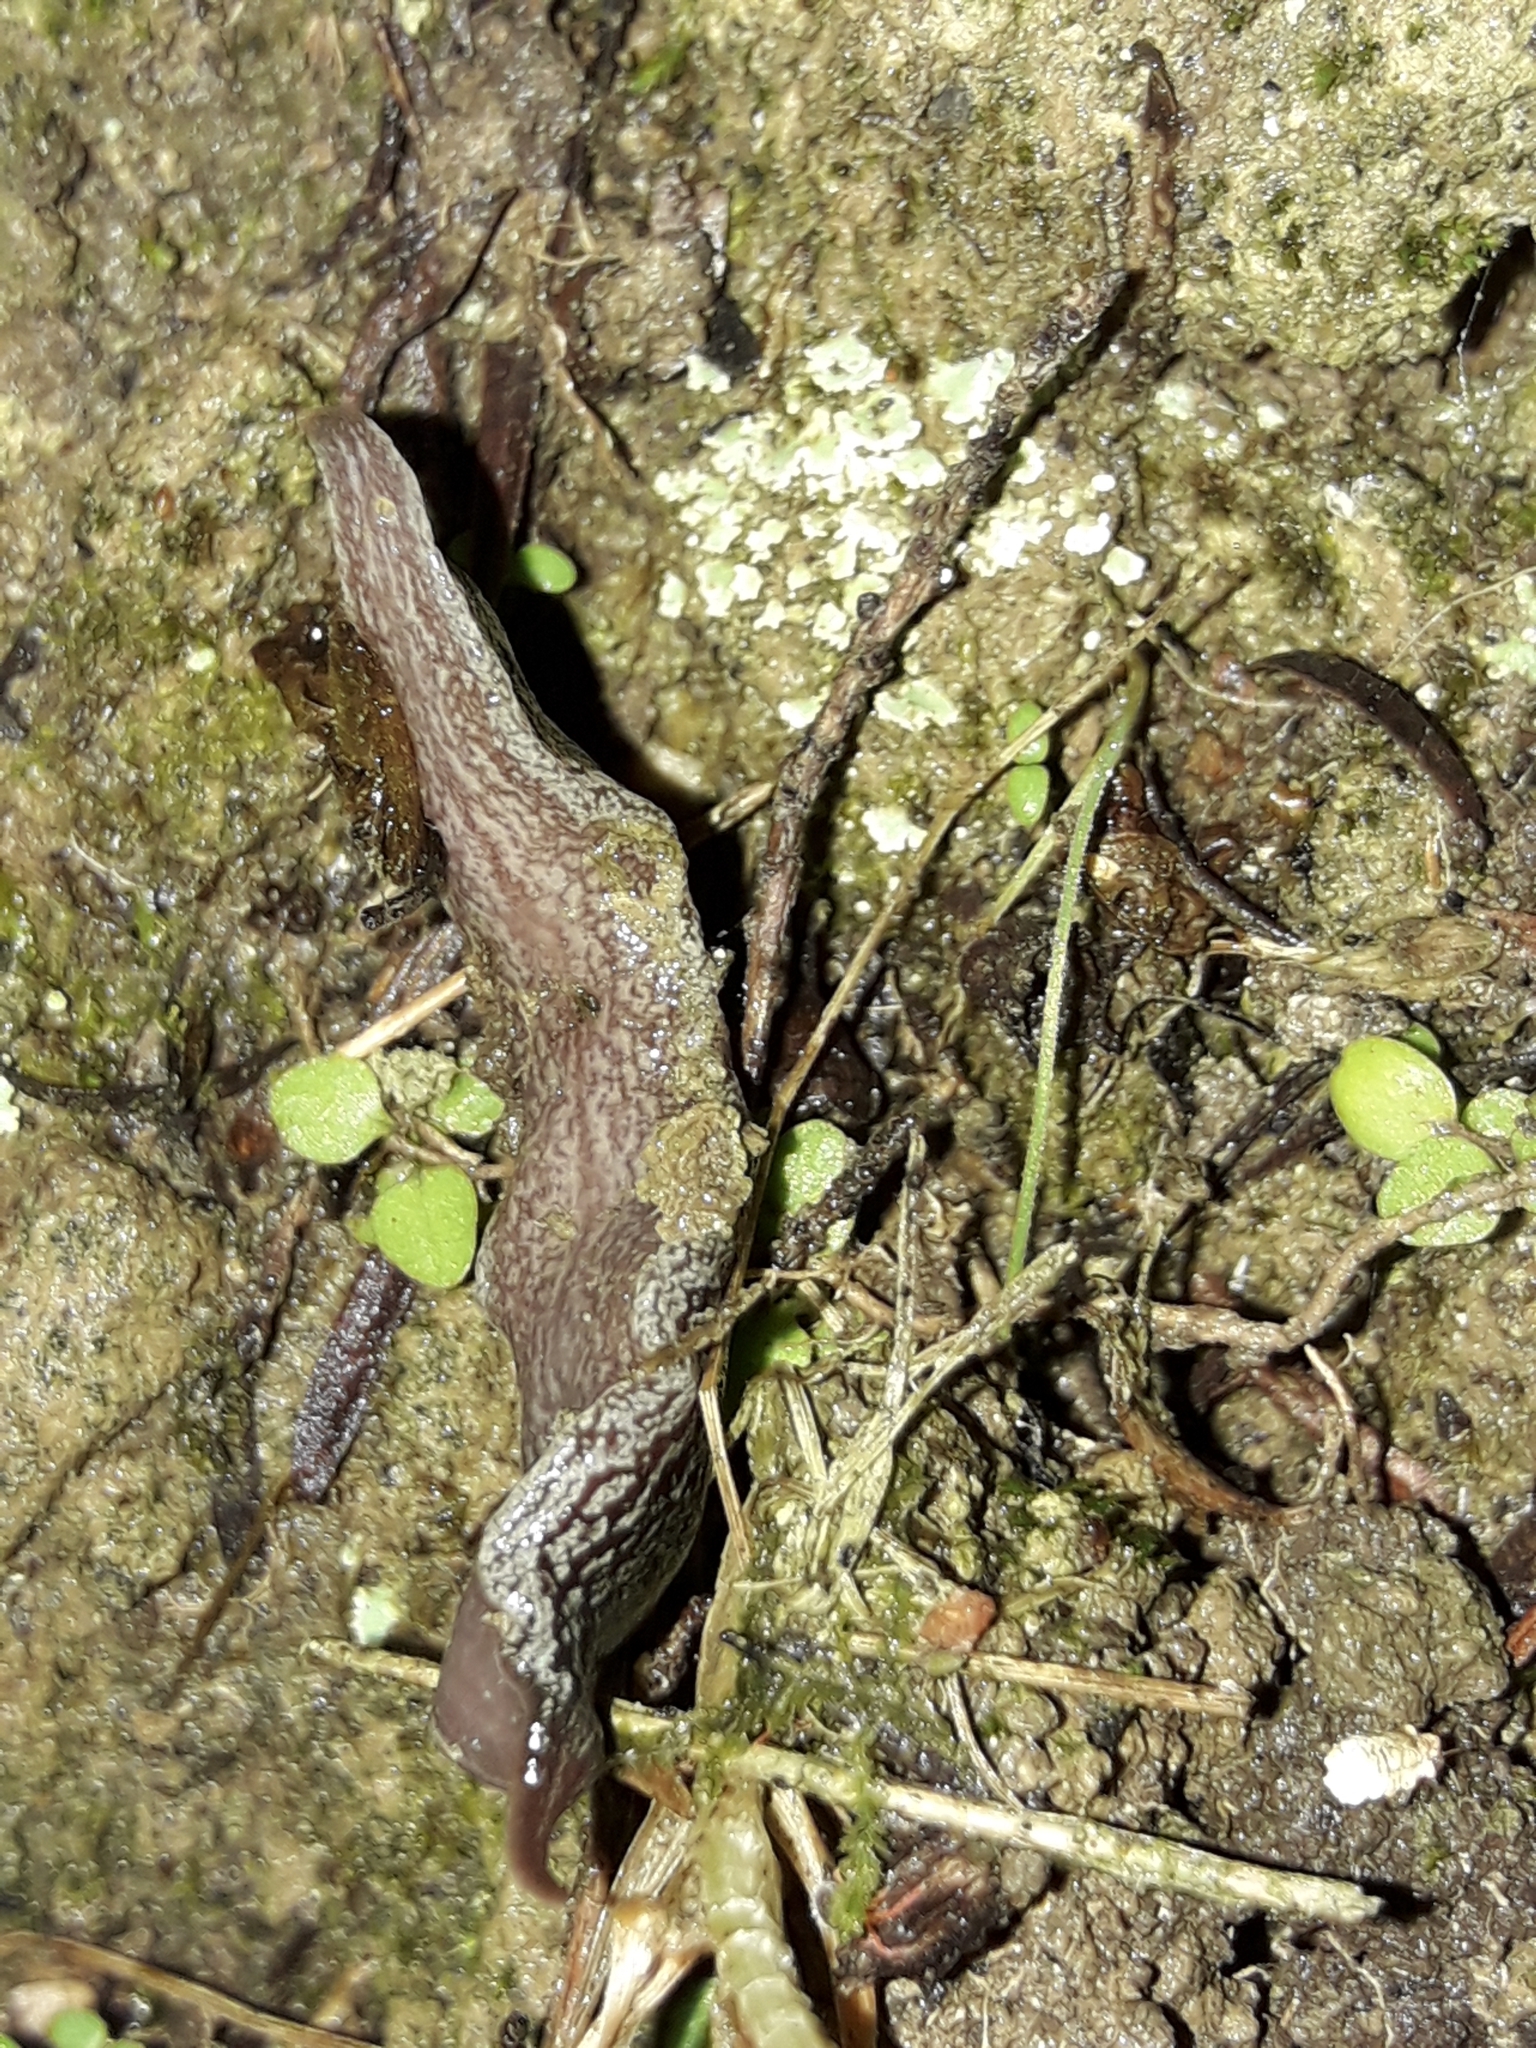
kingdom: Animalia
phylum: Platyhelminthes
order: Tricladida
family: Geoplanidae
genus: Australopacifica
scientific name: Australopacifica hamiltoni
